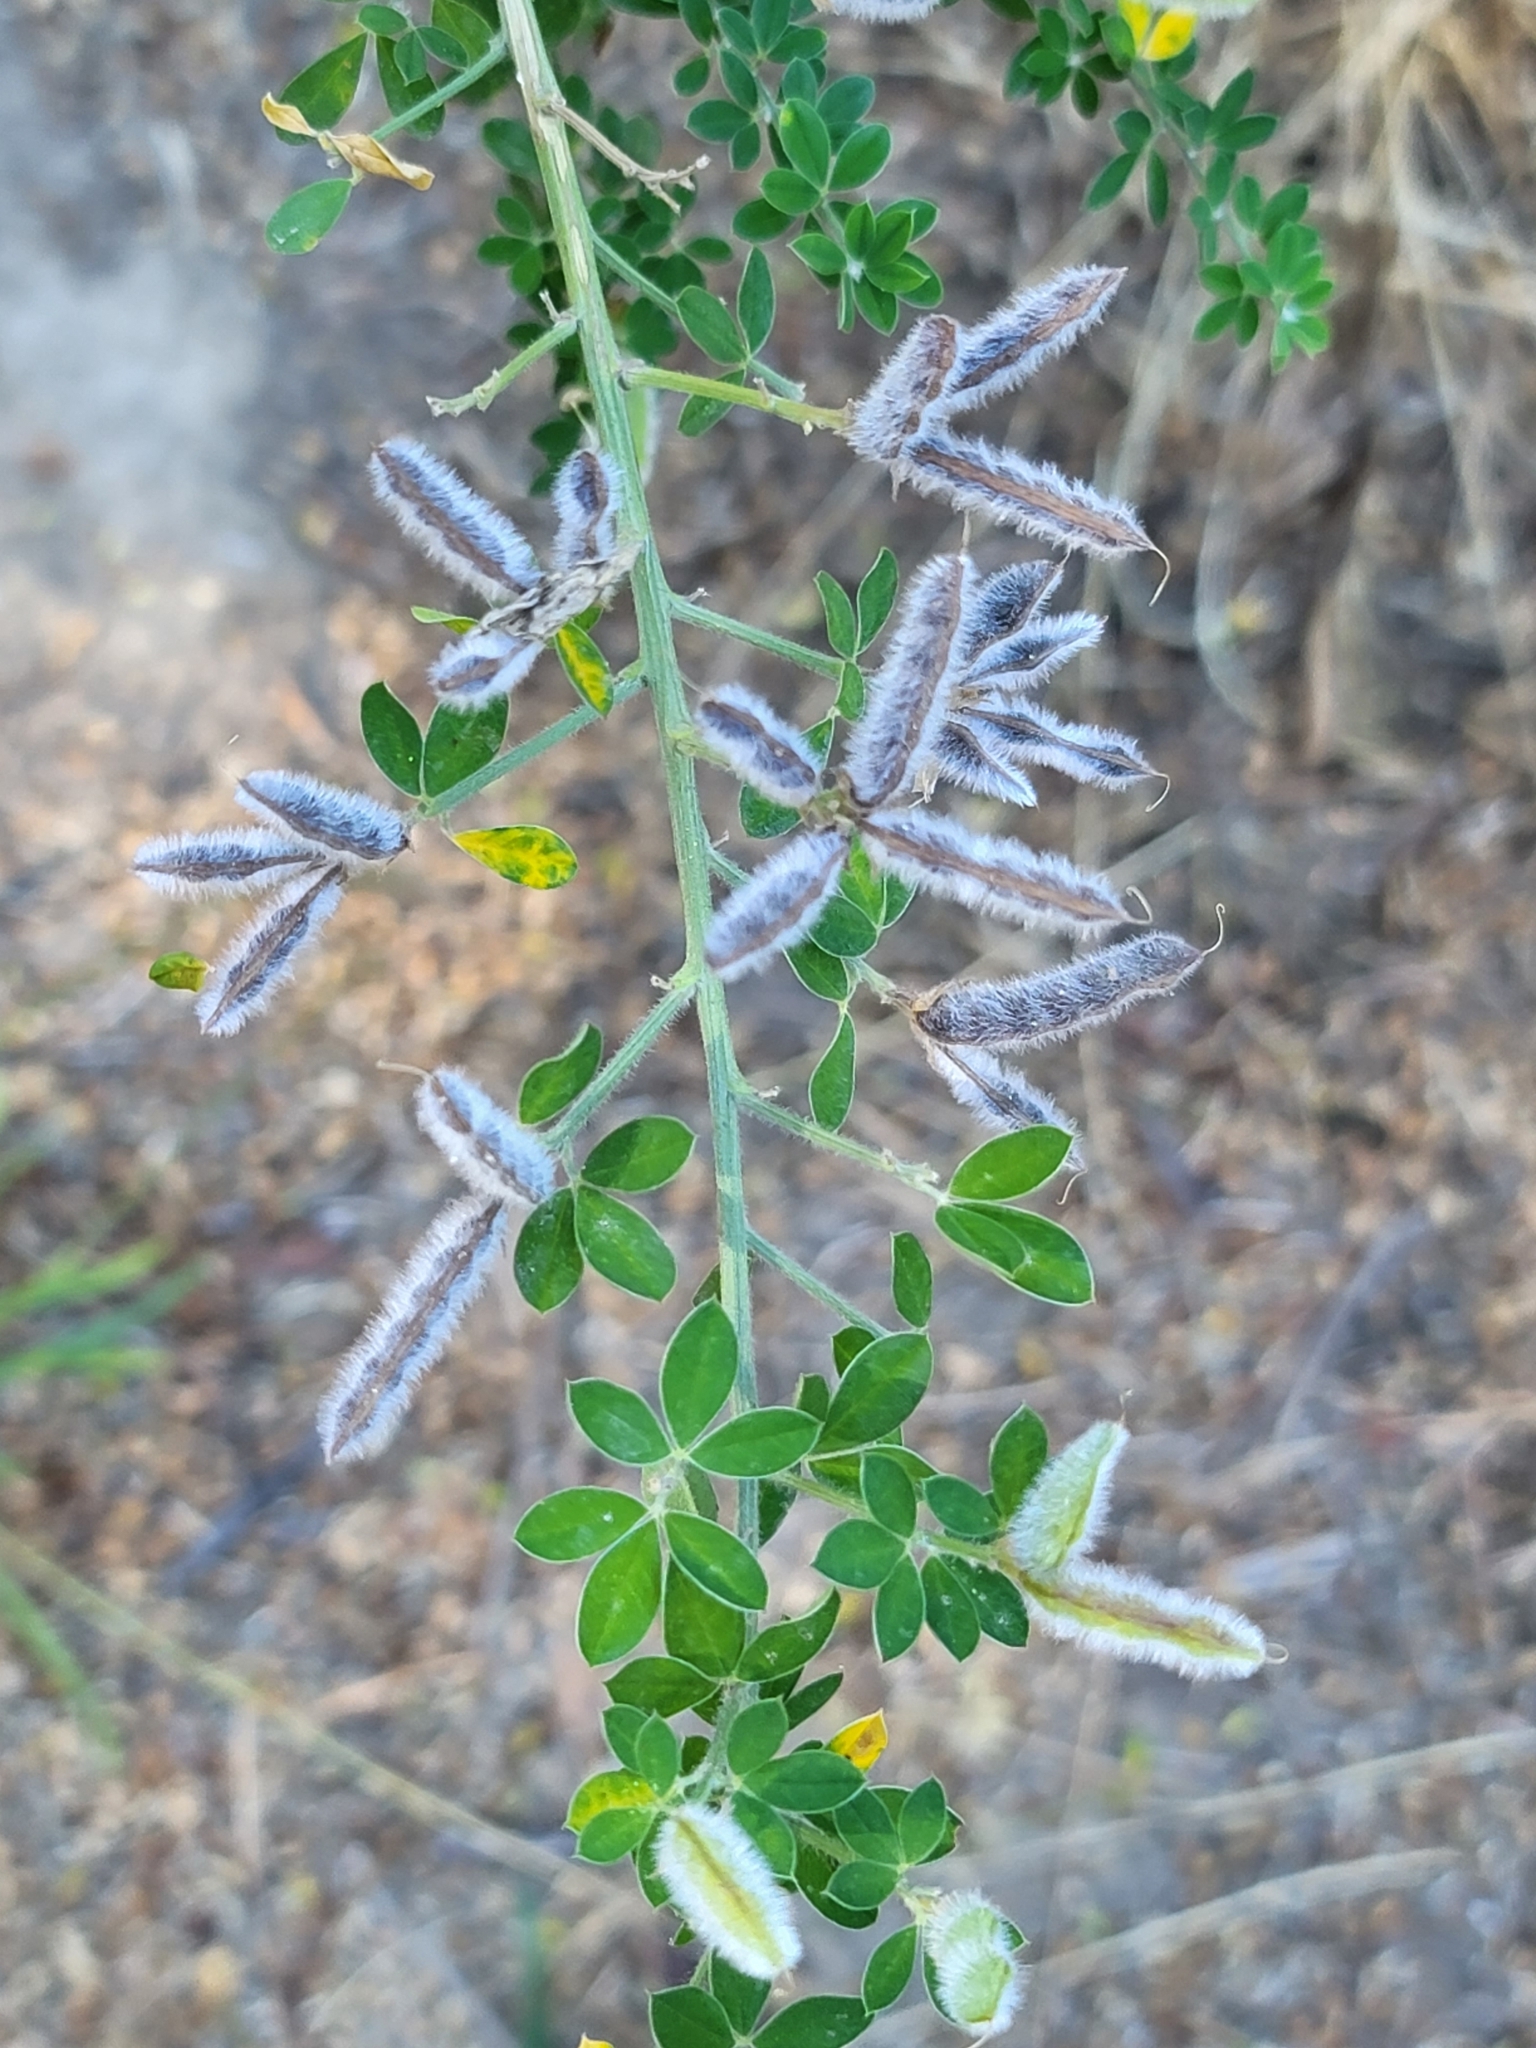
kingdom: Plantae
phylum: Tracheophyta
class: Magnoliopsida
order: Fabales
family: Fabaceae
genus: Genista
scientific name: Genista monspessulana
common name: Montpellier broom
